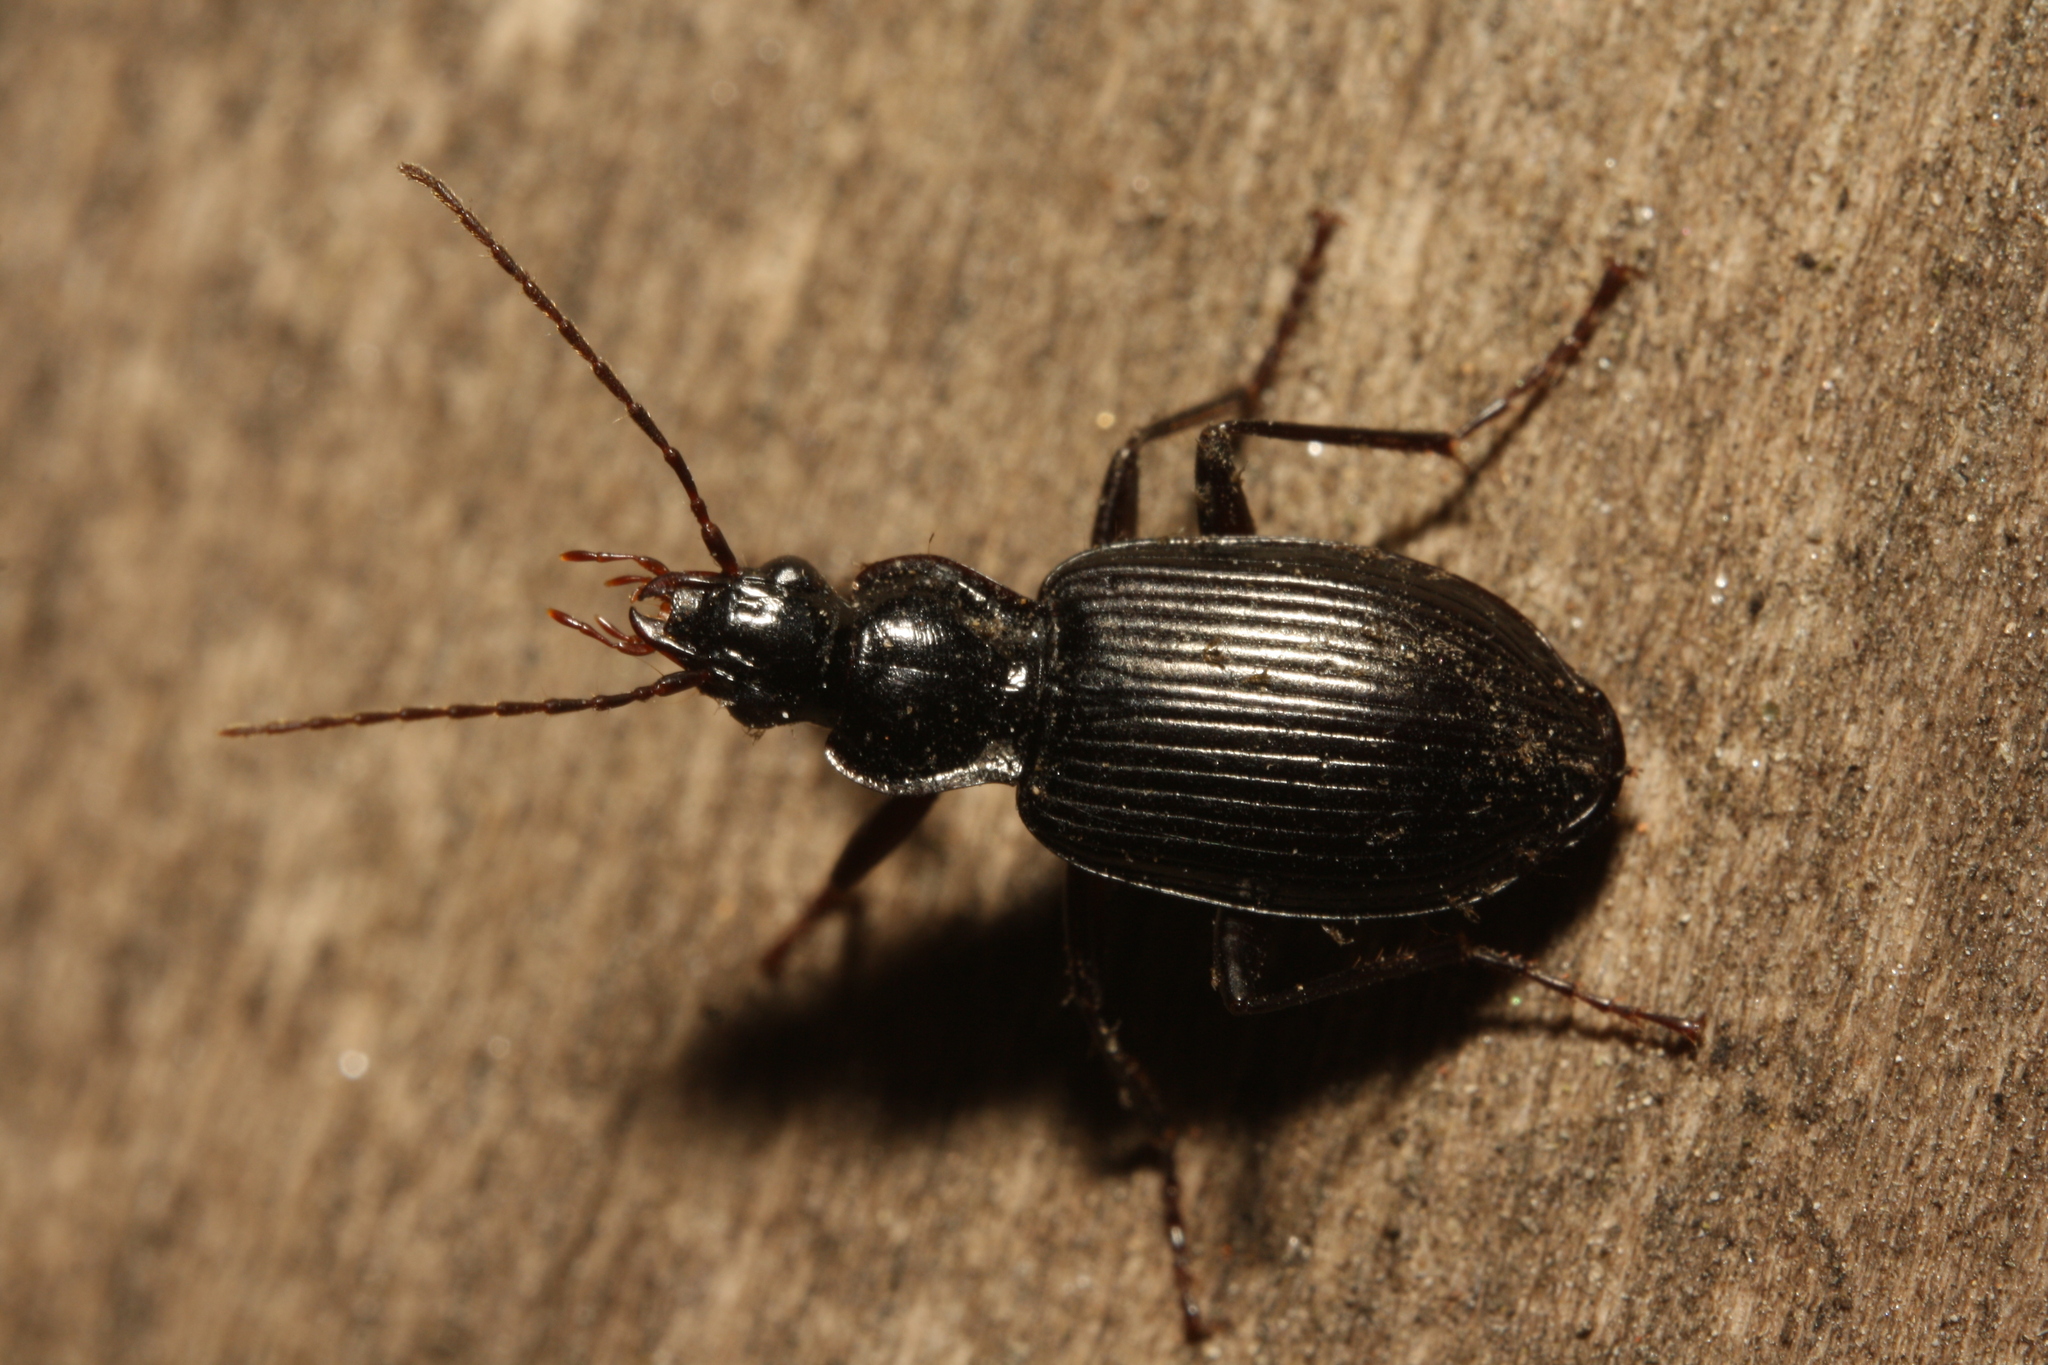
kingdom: Animalia
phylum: Arthropoda
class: Insecta
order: Coleoptera
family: Carabidae
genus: Platynus
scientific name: Platynus assimilis
